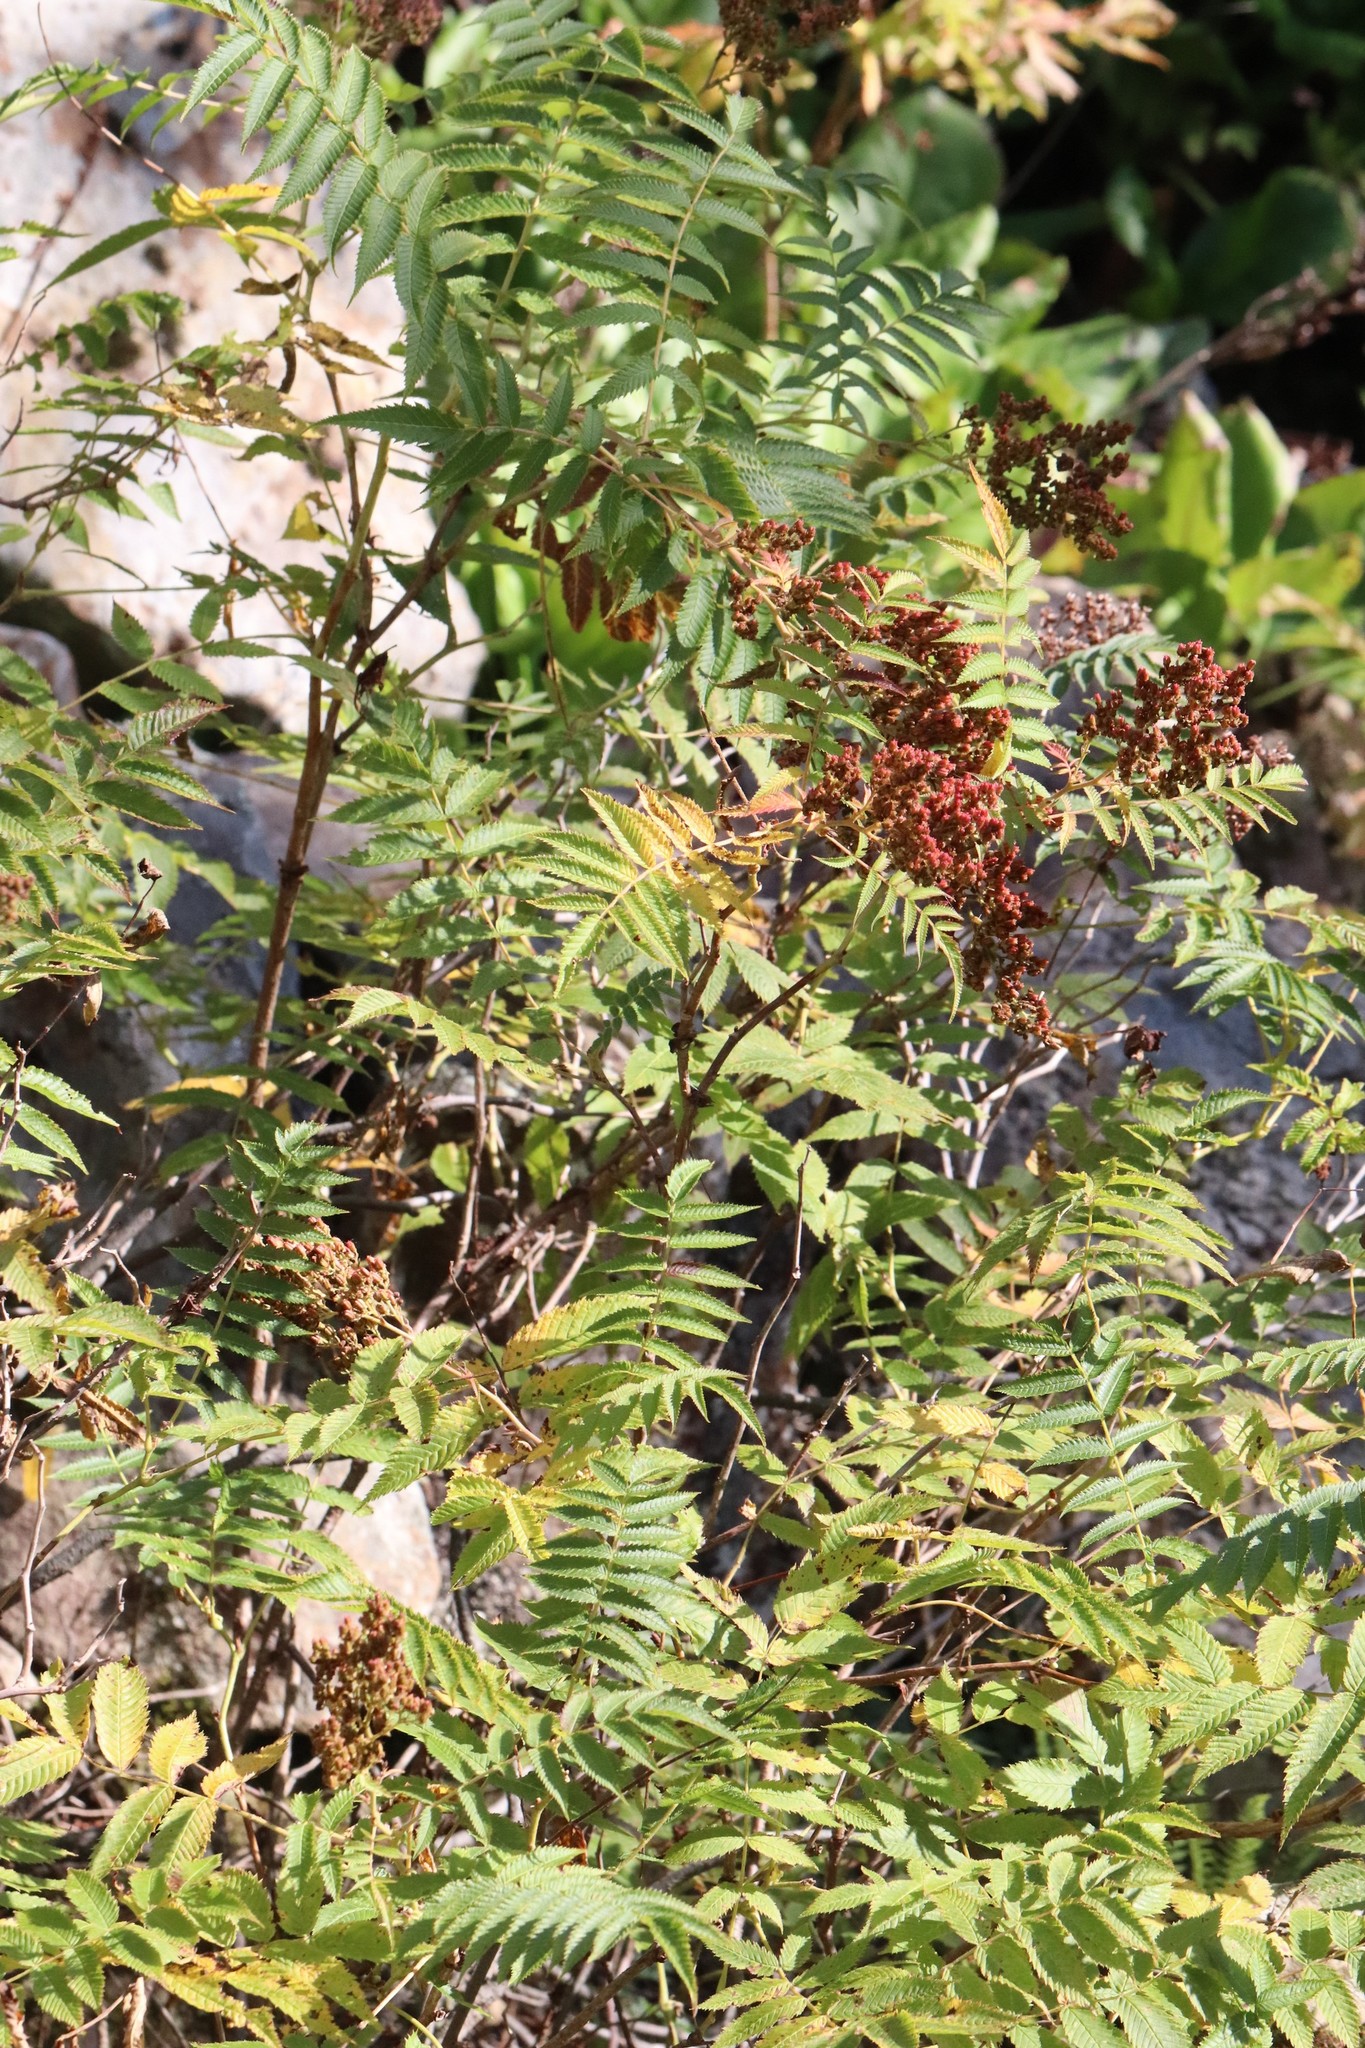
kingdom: Plantae
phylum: Tracheophyta
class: Magnoliopsida
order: Rosales
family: Rosaceae
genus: Sorbaria
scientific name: Sorbaria sorbifolia
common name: False spiraea
